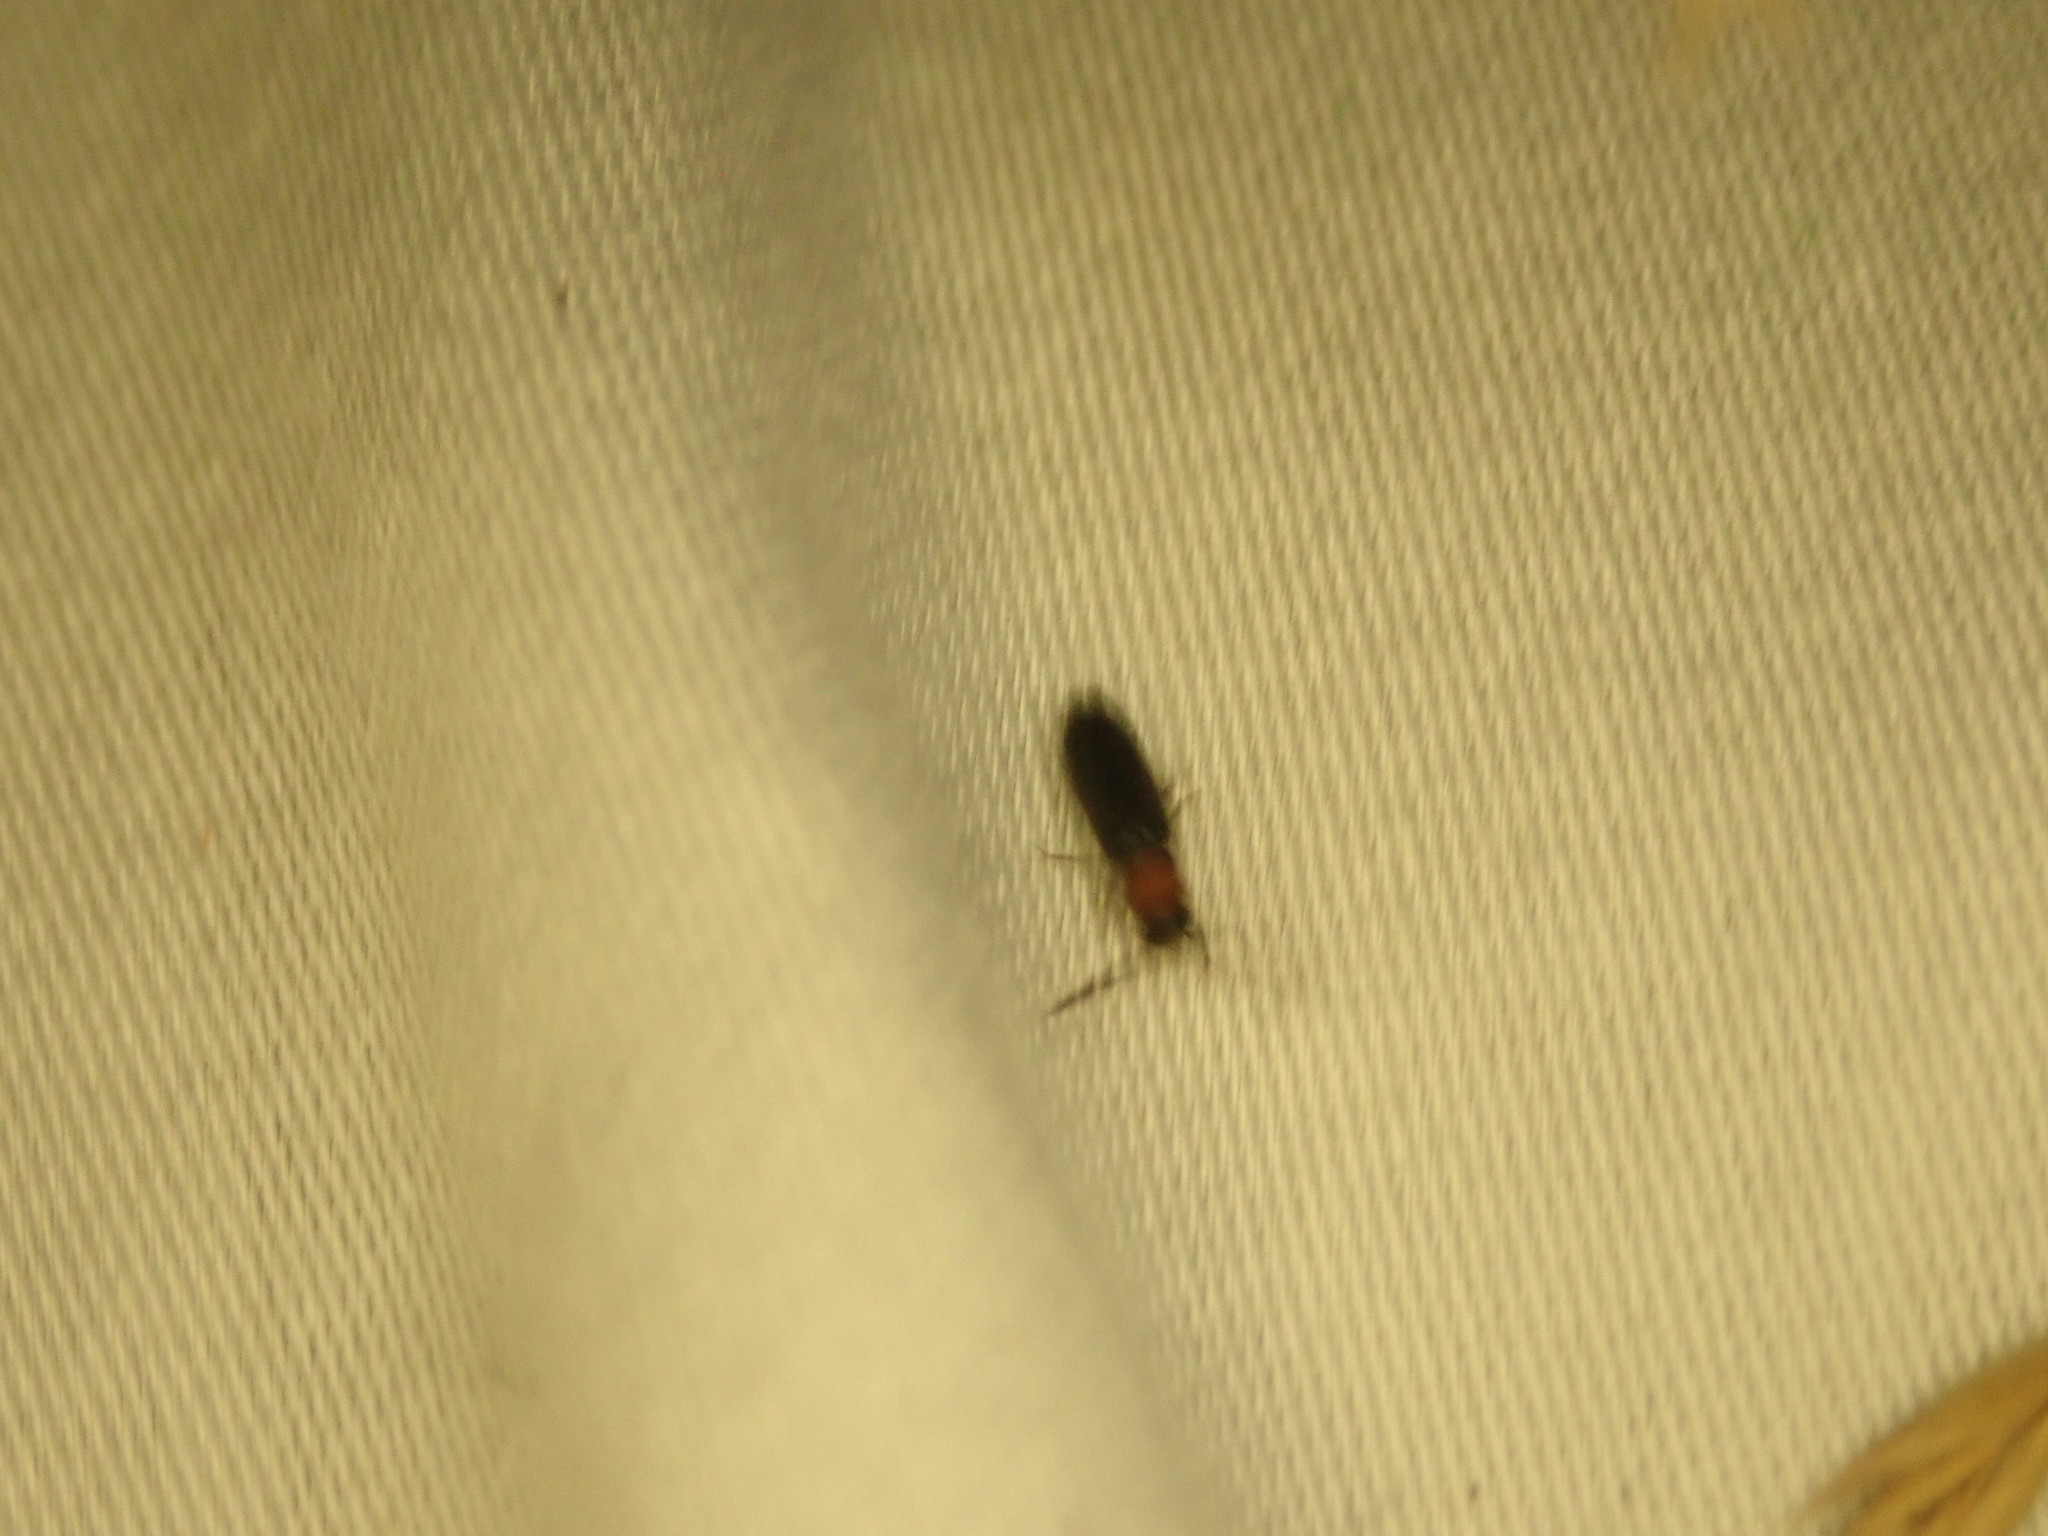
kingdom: Animalia
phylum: Arthropoda
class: Insecta
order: Coleoptera
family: Oedemeridae
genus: Ischnomera
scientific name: Ischnomera
